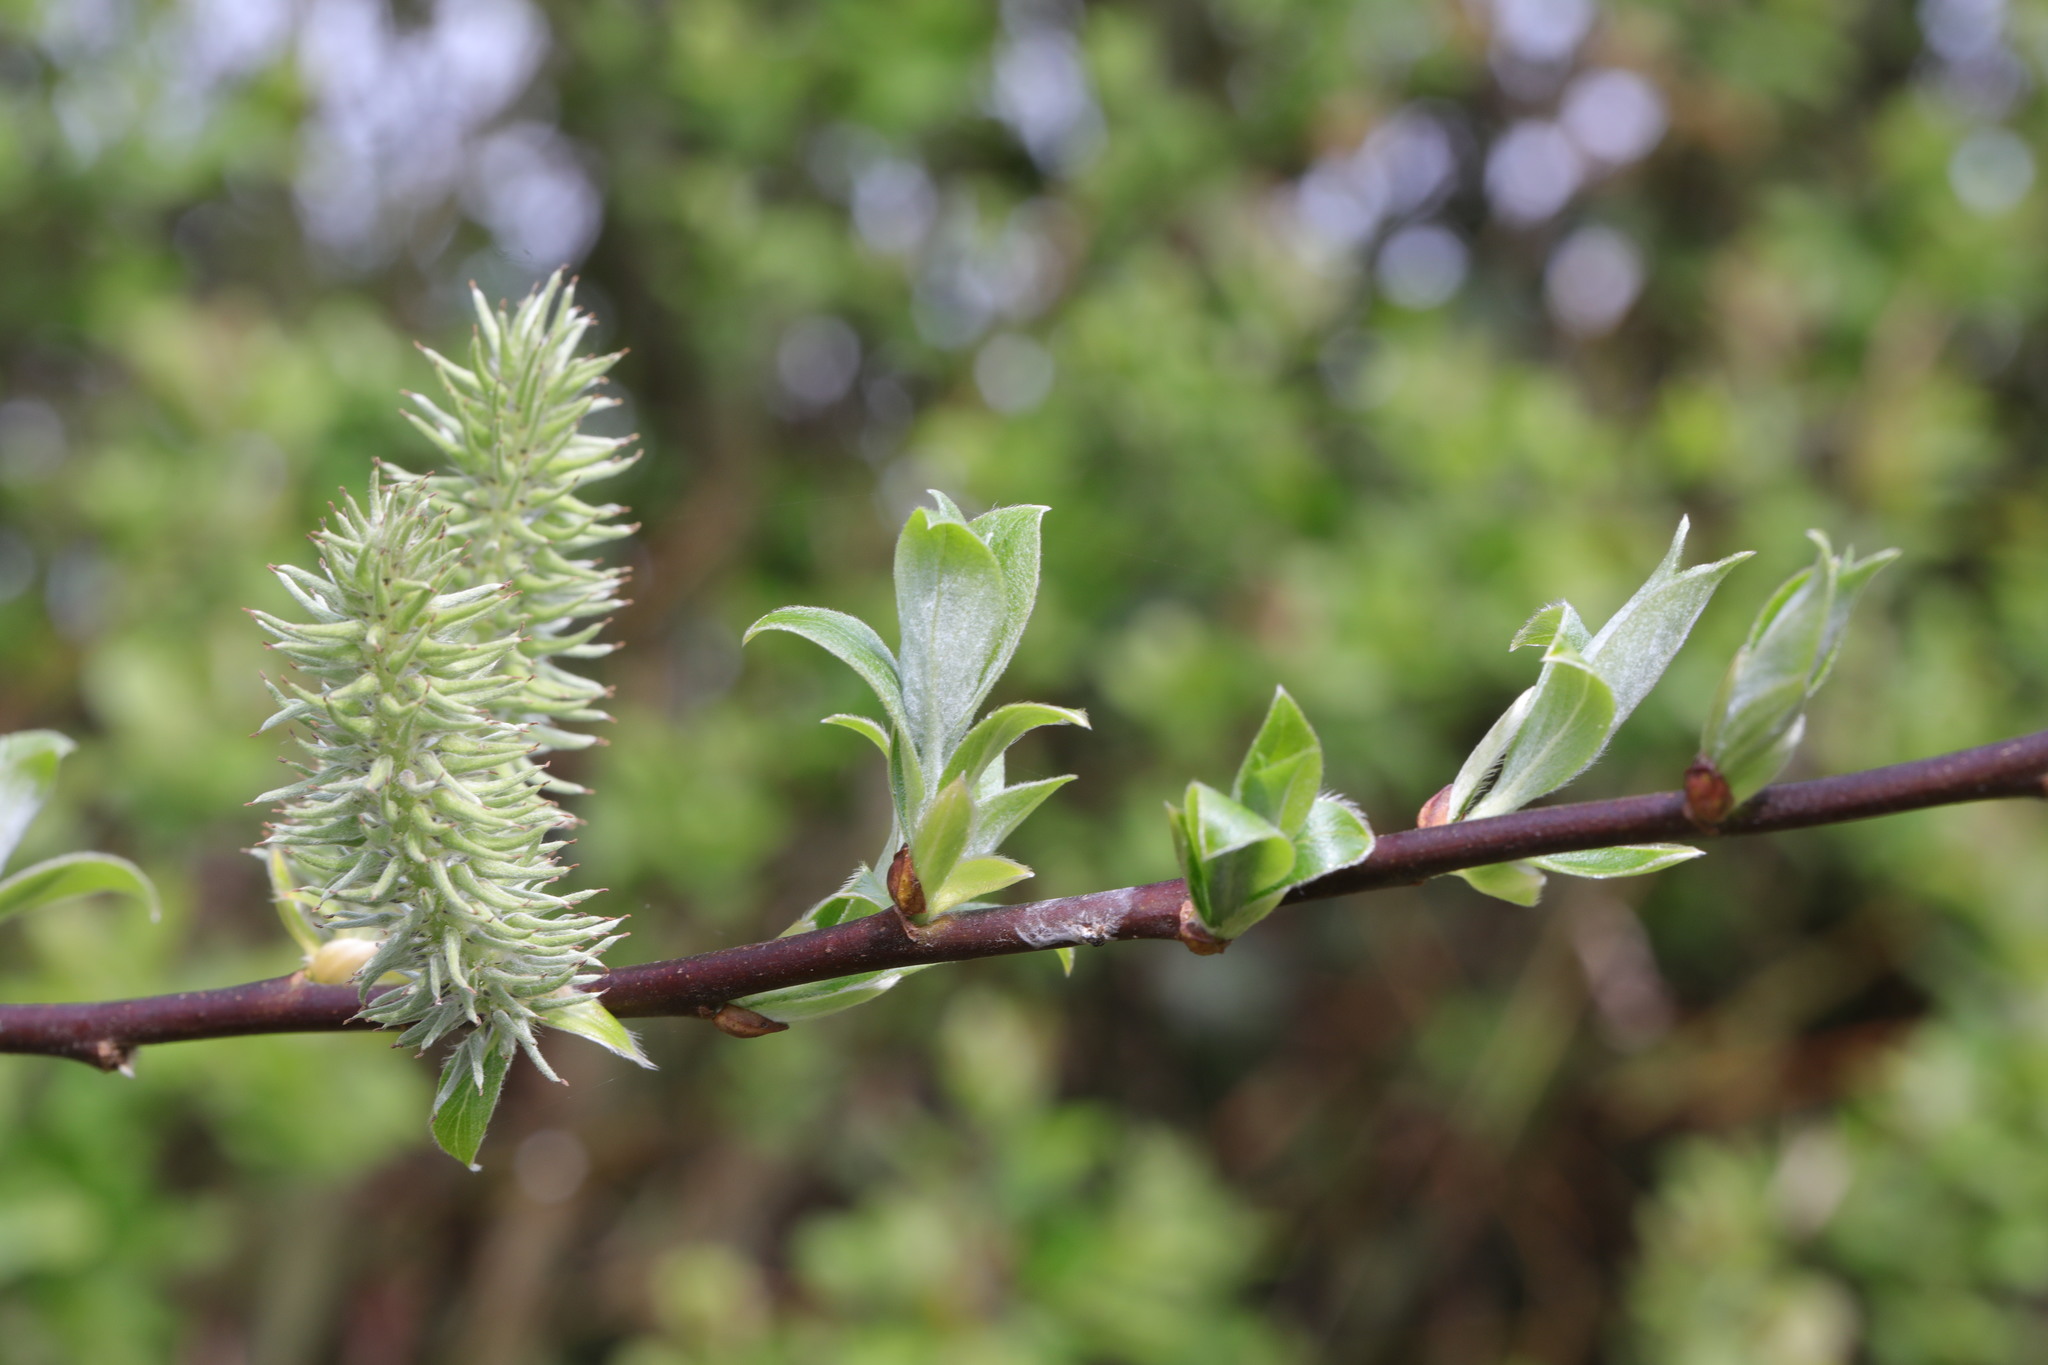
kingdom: Plantae
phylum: Tracheophyta
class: Magnoliopsida
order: Malpighiales
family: Salicaceae
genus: Salix
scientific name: Salix cinerea
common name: Common sallow
